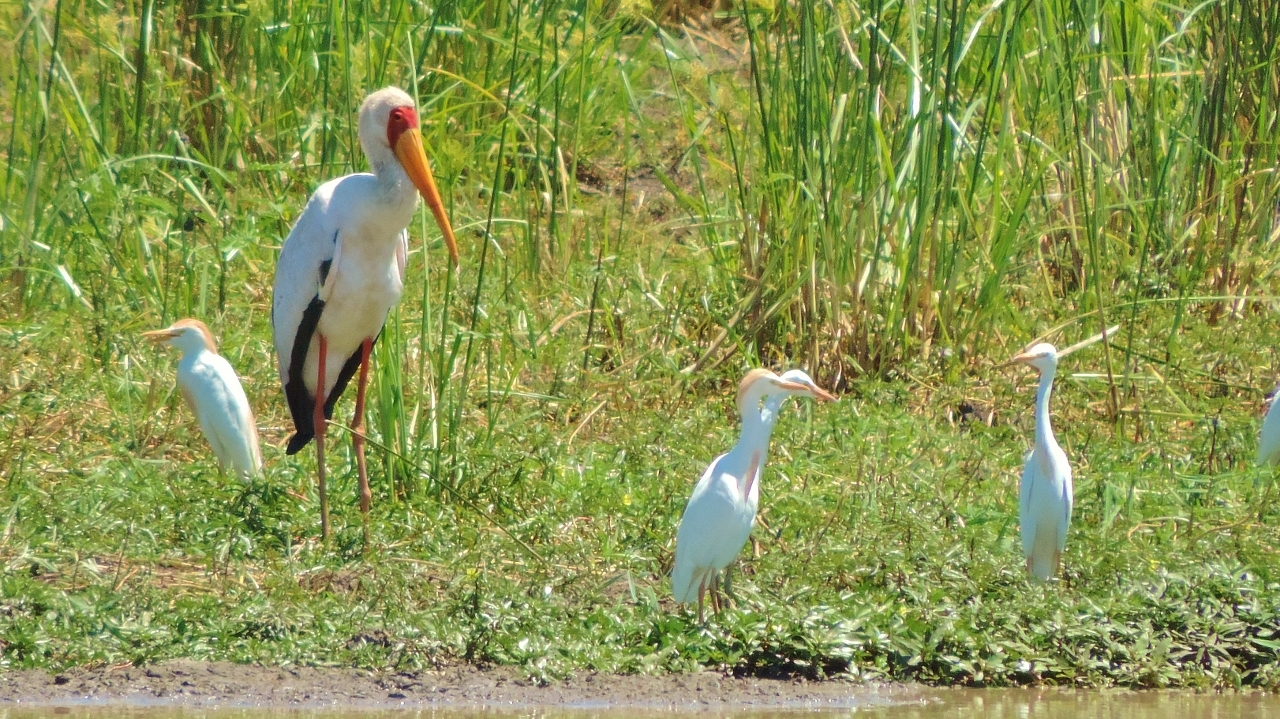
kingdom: Animalia
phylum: Chordata
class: Aves
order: Ciconiiformes
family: Ciconiidae
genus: Mycteria
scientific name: Mycteria ibis
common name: Yellow-billed stork
